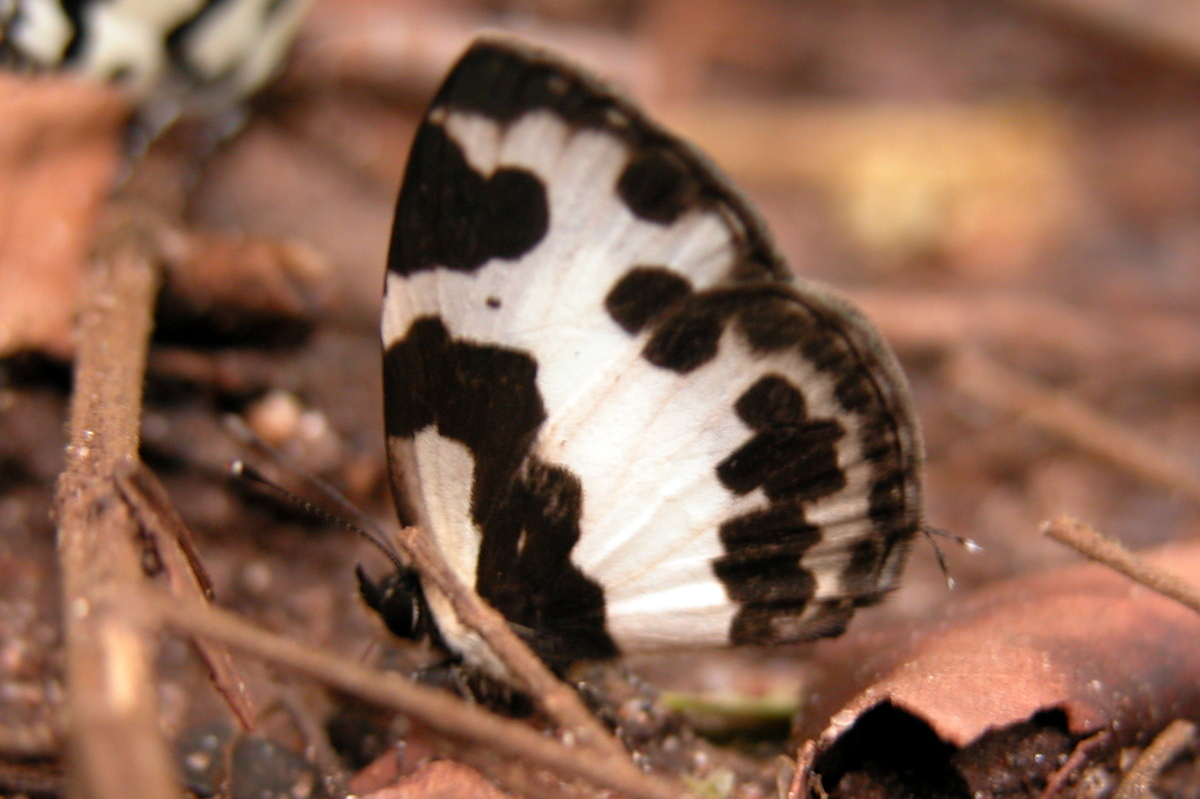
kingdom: Animalia
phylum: Arthropoda
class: Insecta
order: Lepidoptera
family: Lycaenidae
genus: Caleta
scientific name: Caleta elna
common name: Elbowed pierrot
